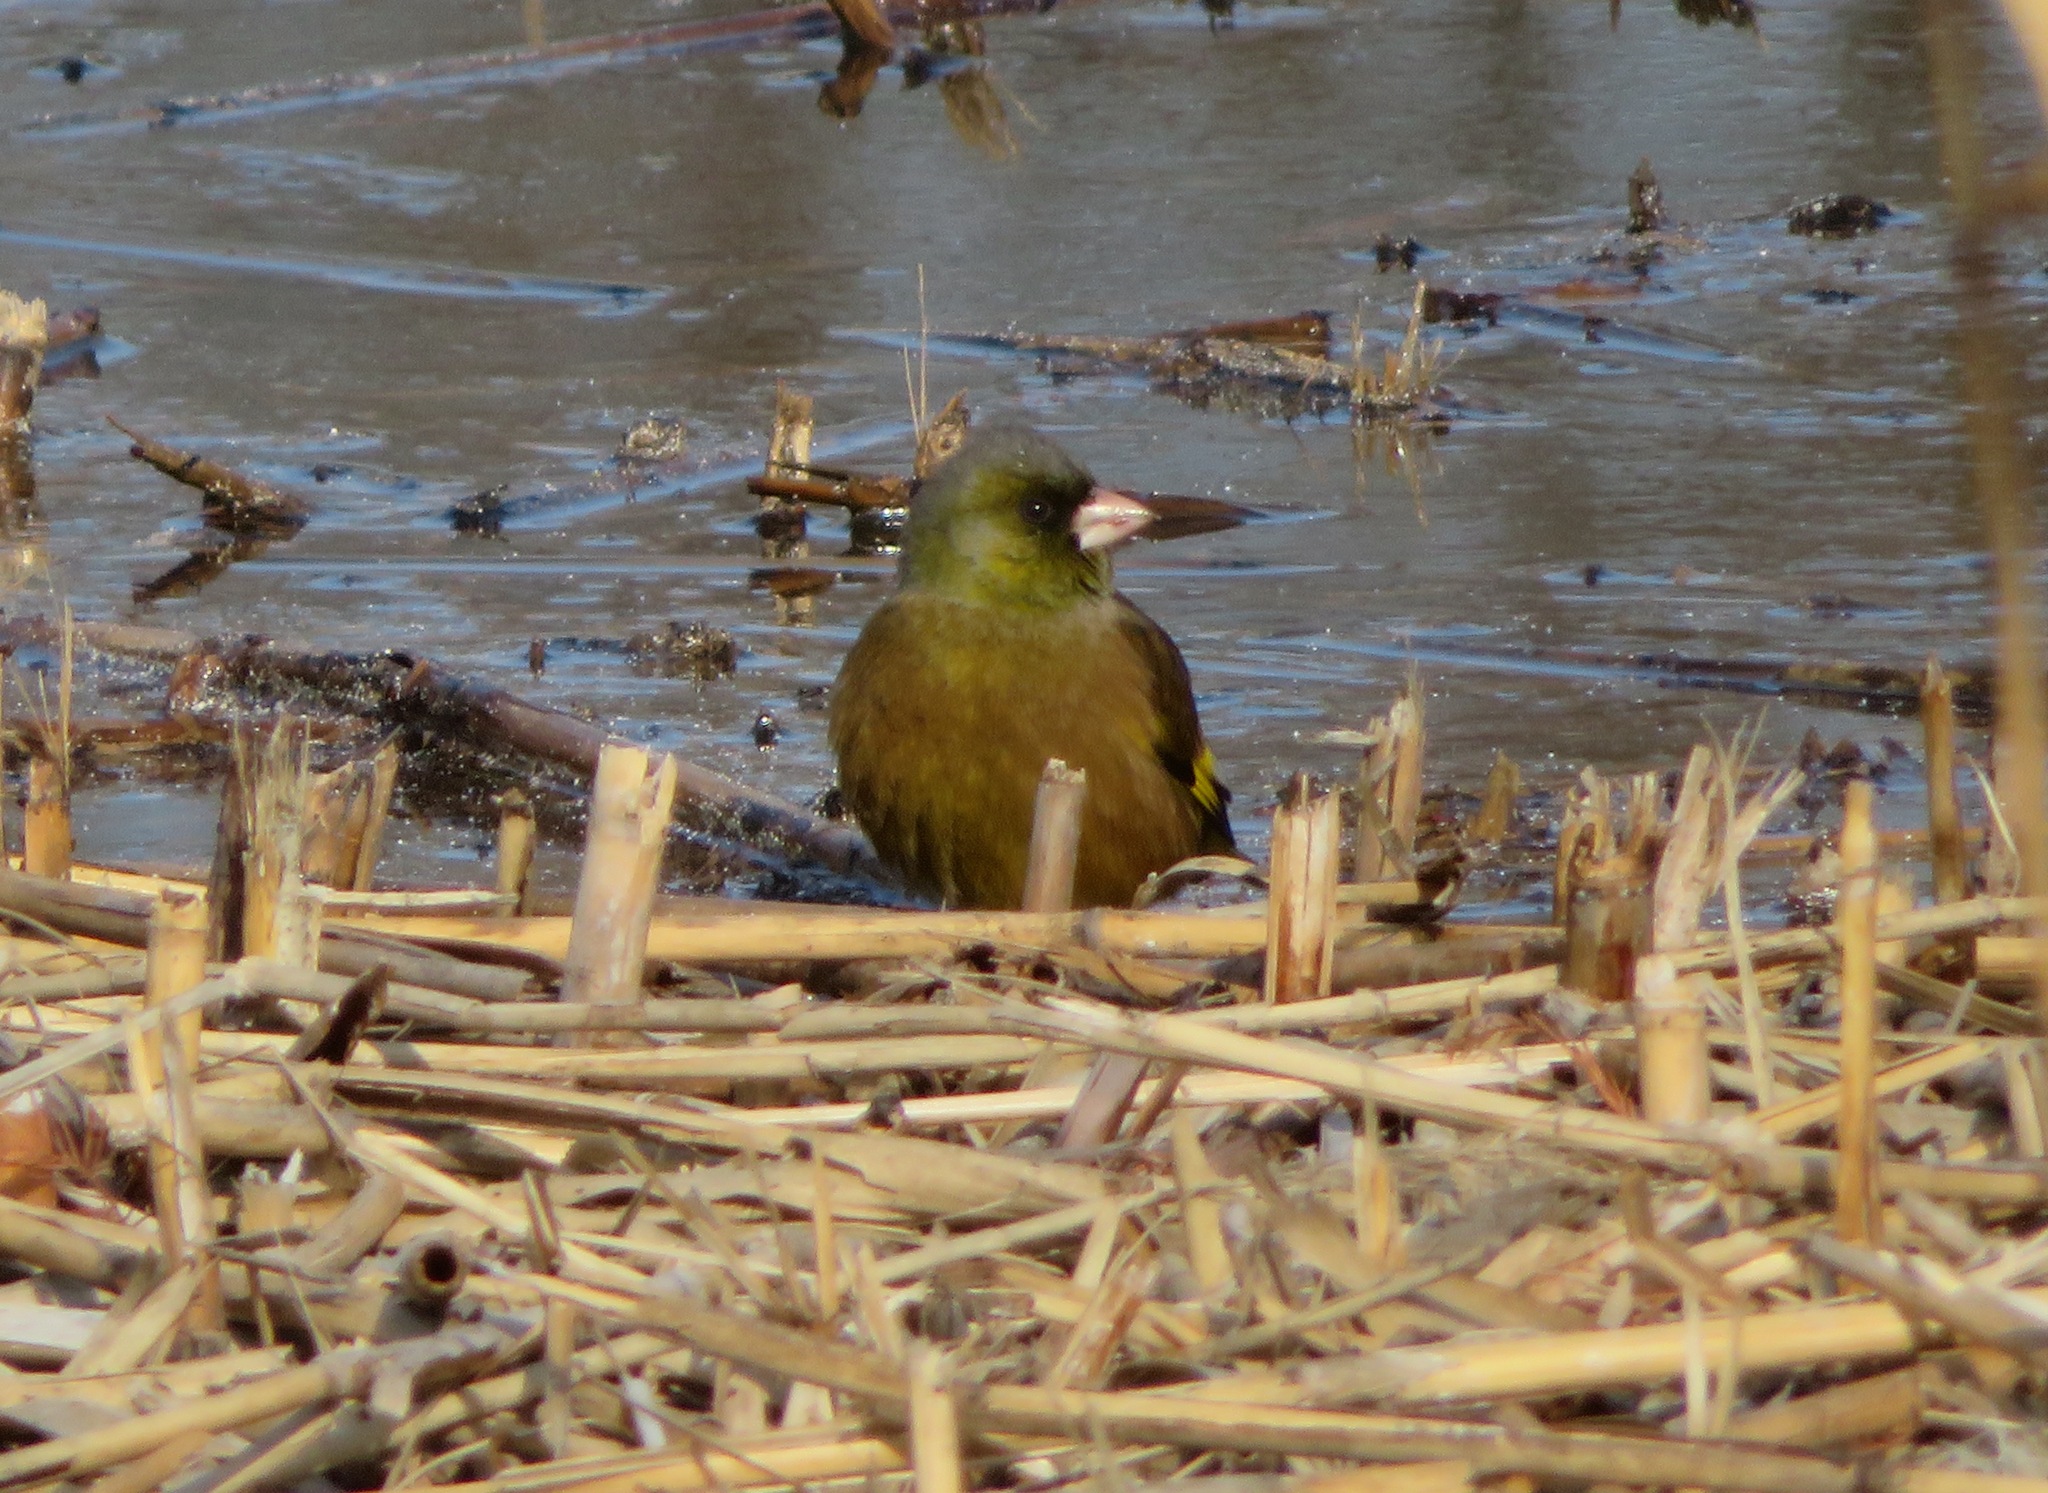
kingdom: Plantae
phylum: Tracheophyta
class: Liliopsida
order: Poales
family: Poaceae
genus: Chloris
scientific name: Chloris sinica
